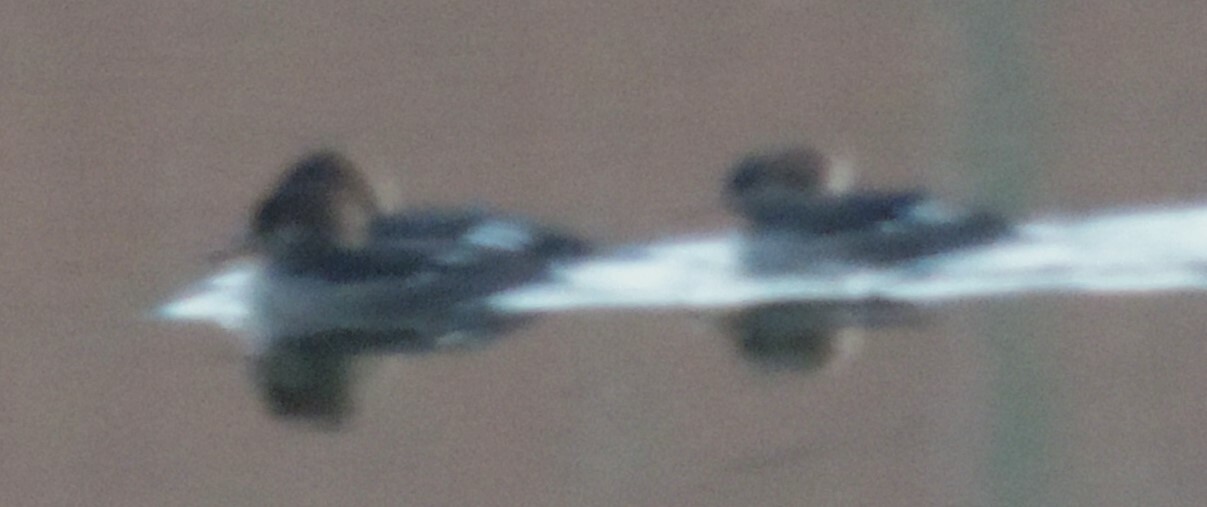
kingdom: Animalia
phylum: Chordata
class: Aves
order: Anseriformes
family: Anatidae
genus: Lophodytes
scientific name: Lophodytes cucullatus
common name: Hooded merganser
